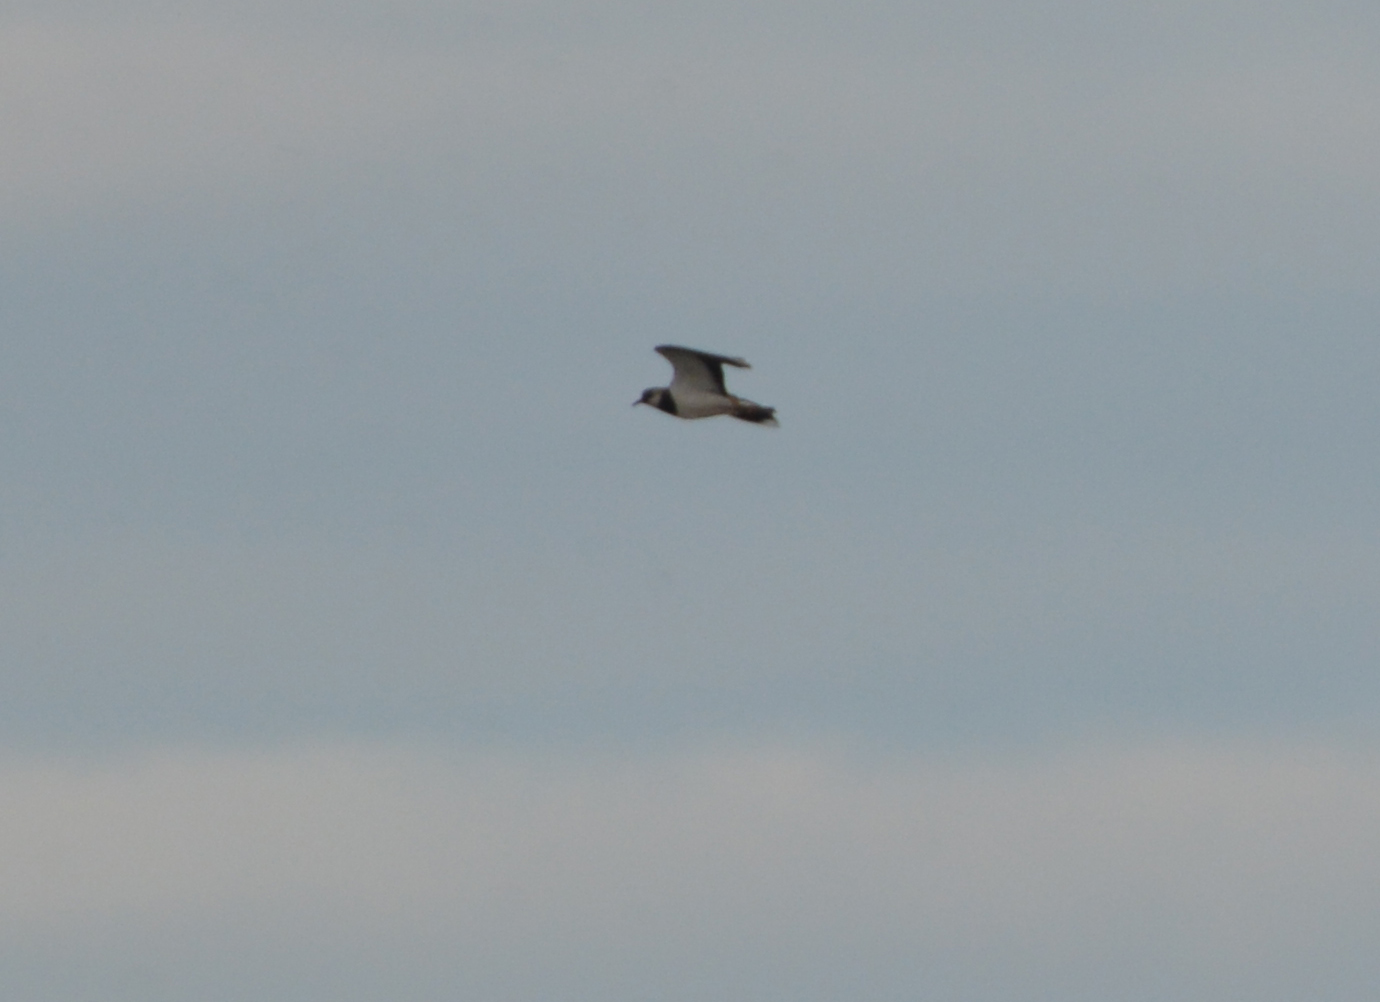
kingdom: Animalia
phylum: Chordata
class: Aves
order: Charadriiformes
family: Charadriidae
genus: Vanellus
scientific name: Vanellus vanellus
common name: Northern lapwing
